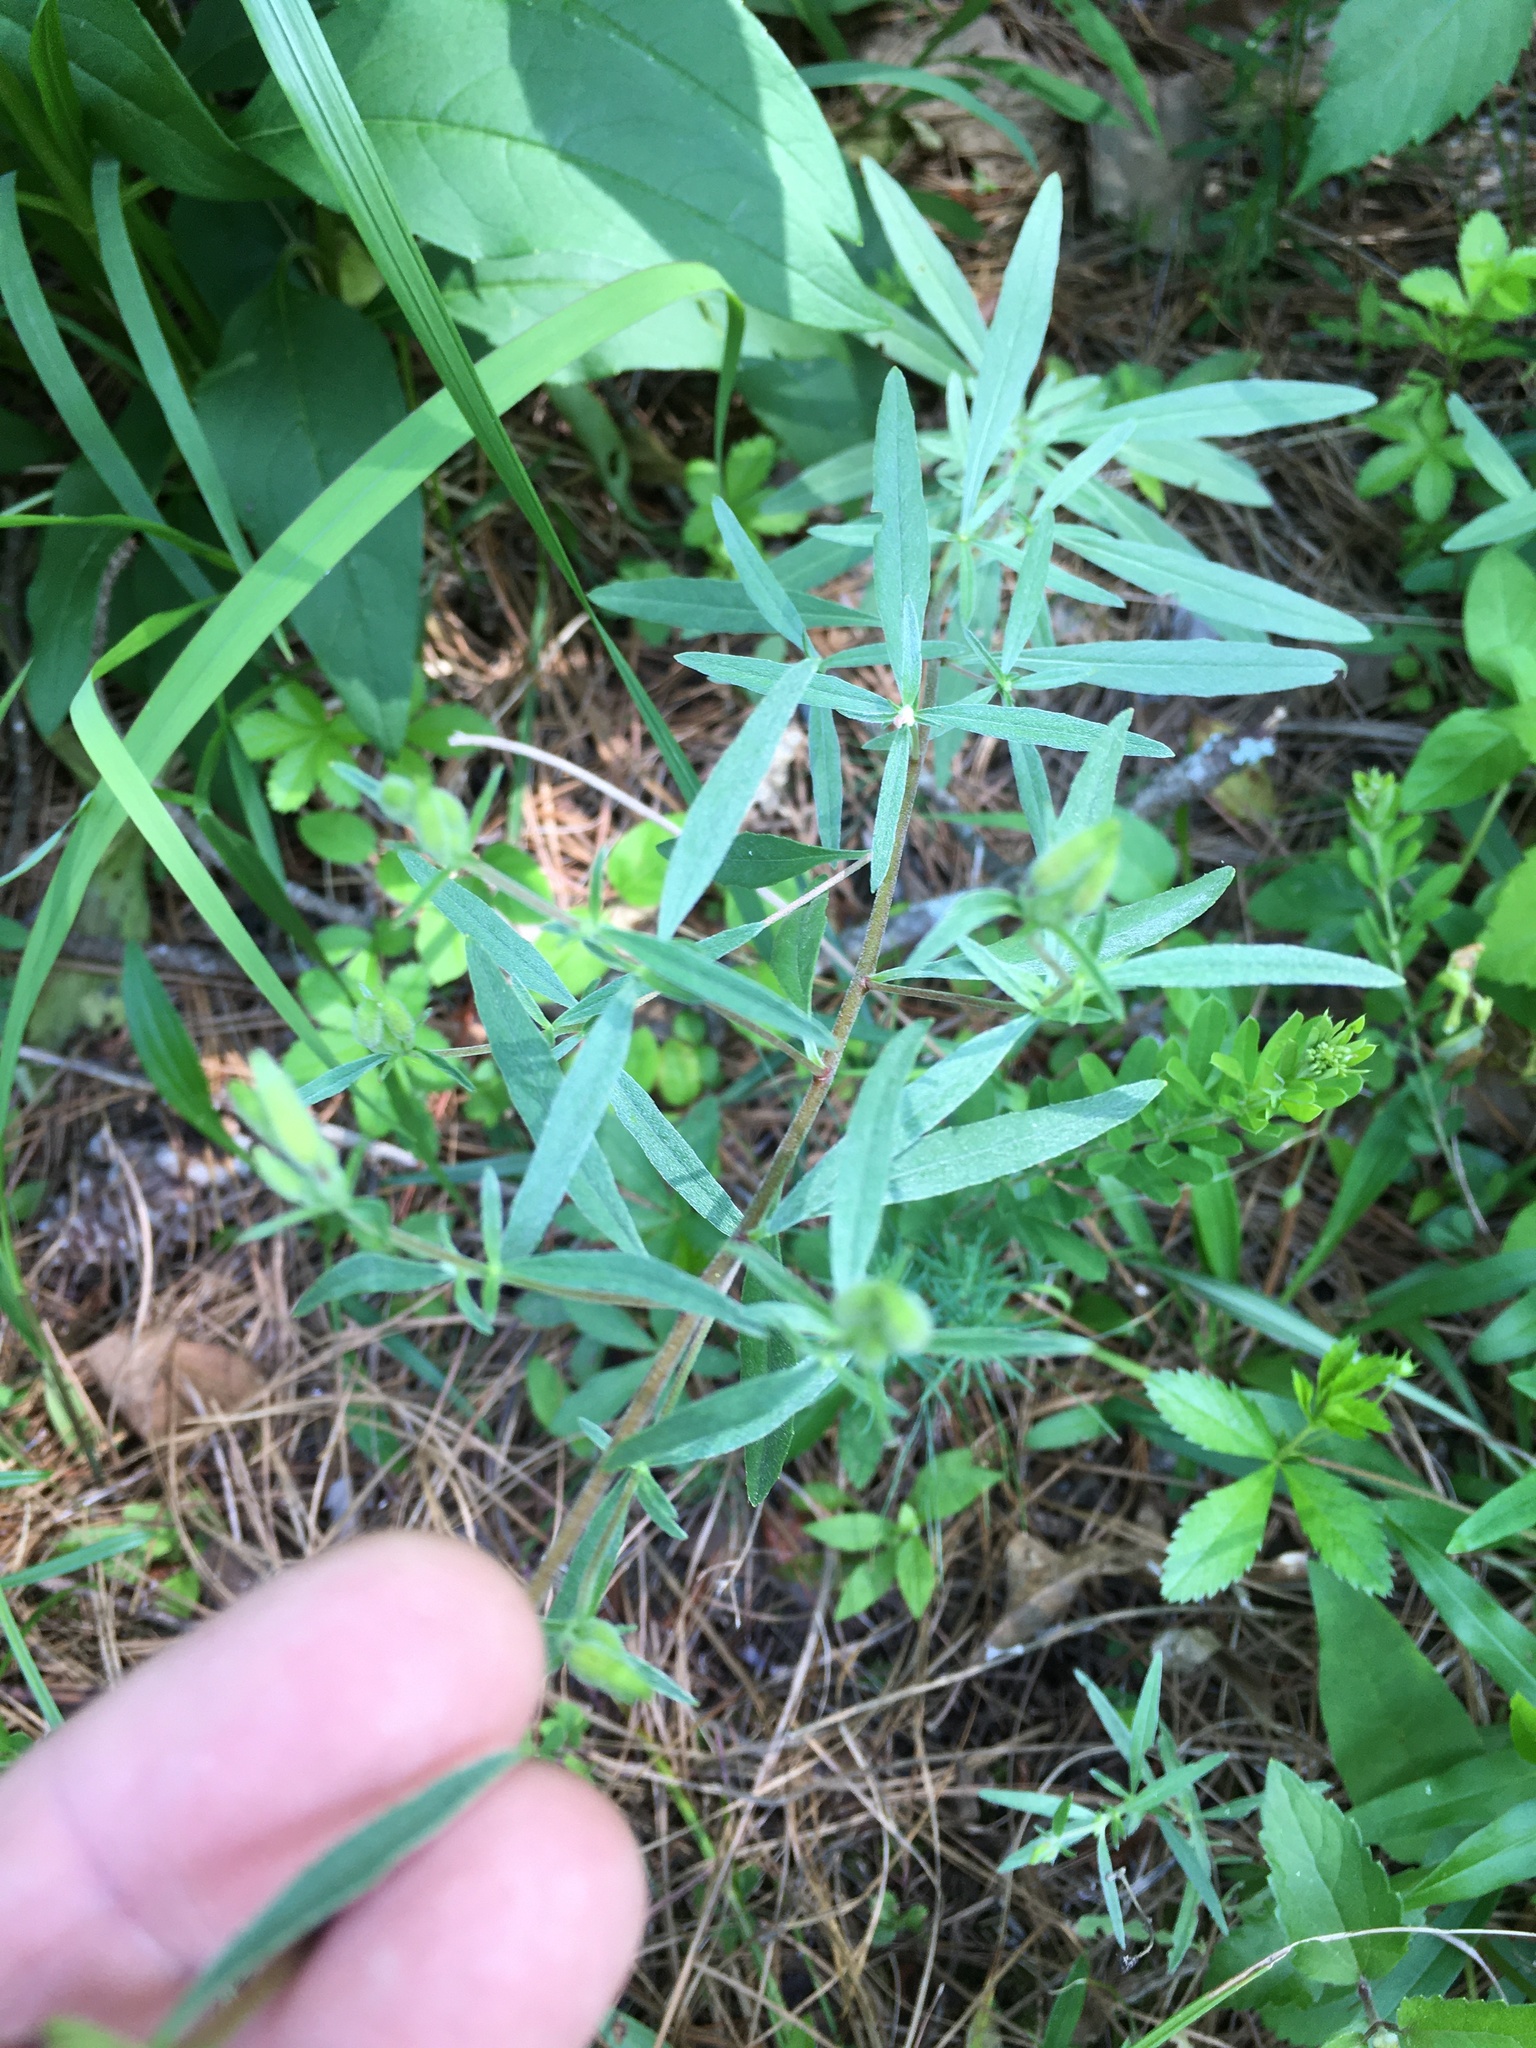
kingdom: Plantae
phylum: Tracheophyta
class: Magnoliopsida
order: Myrtales
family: Onagraceae
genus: Oenothera
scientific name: Oenothera fruticosa
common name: Southern sundrops
